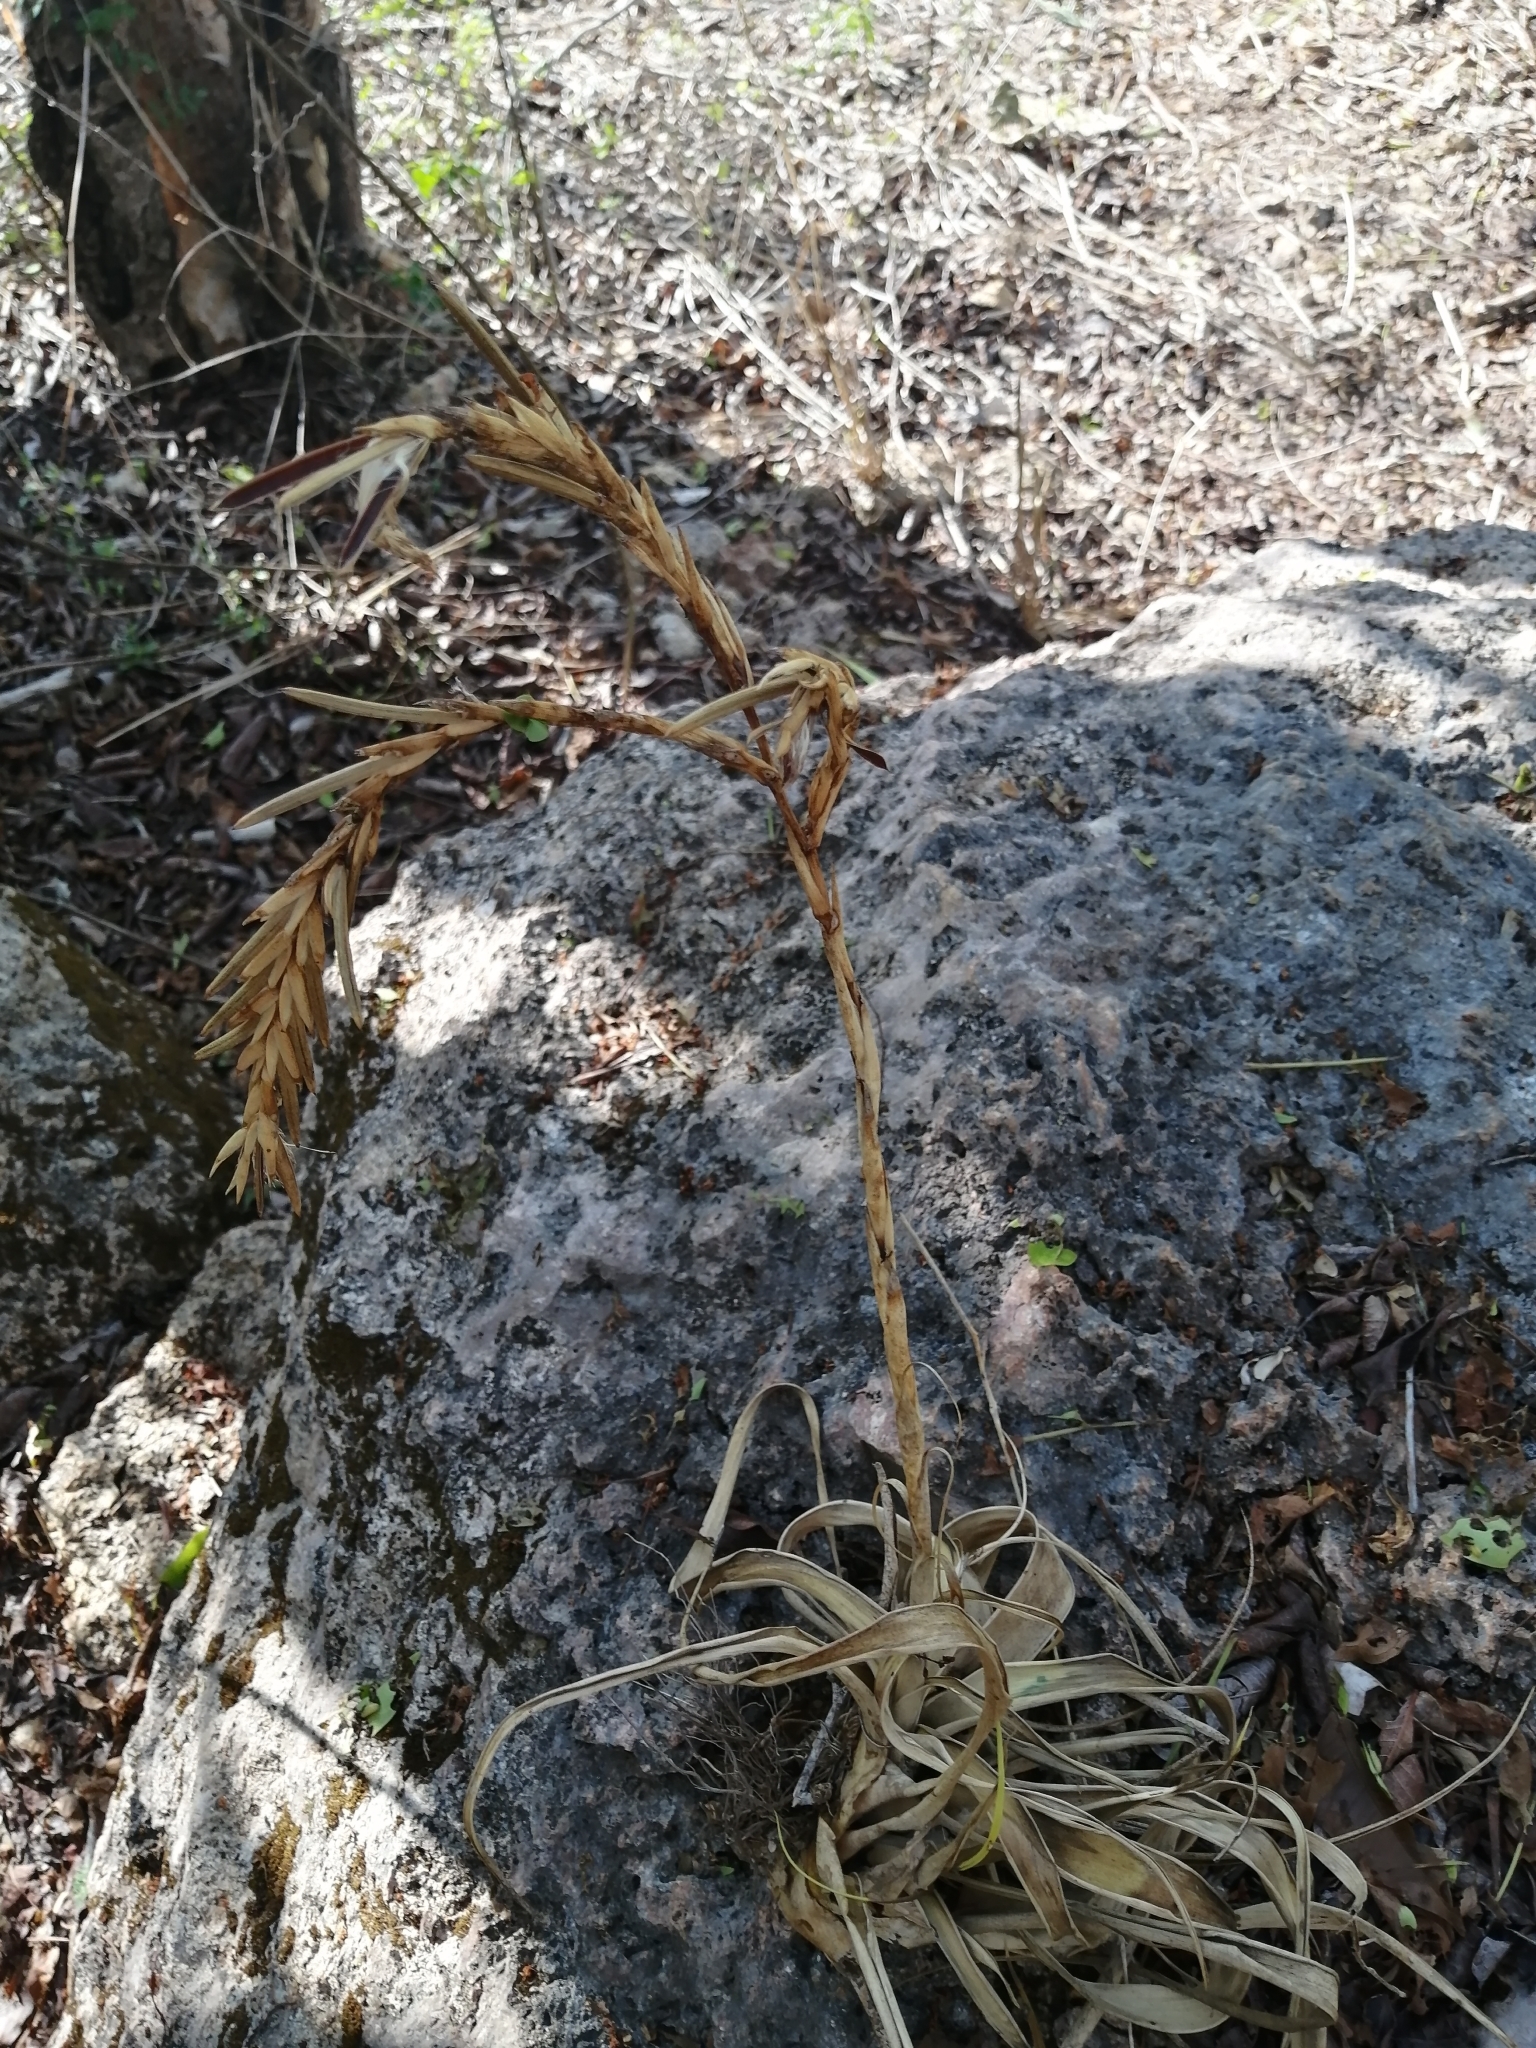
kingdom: Plantae
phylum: Tracheophyta
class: Liliopsida
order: Poales
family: Bromeliaceae
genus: Tillandsia
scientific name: Tillandsia fasciculata
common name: Giant airplant
